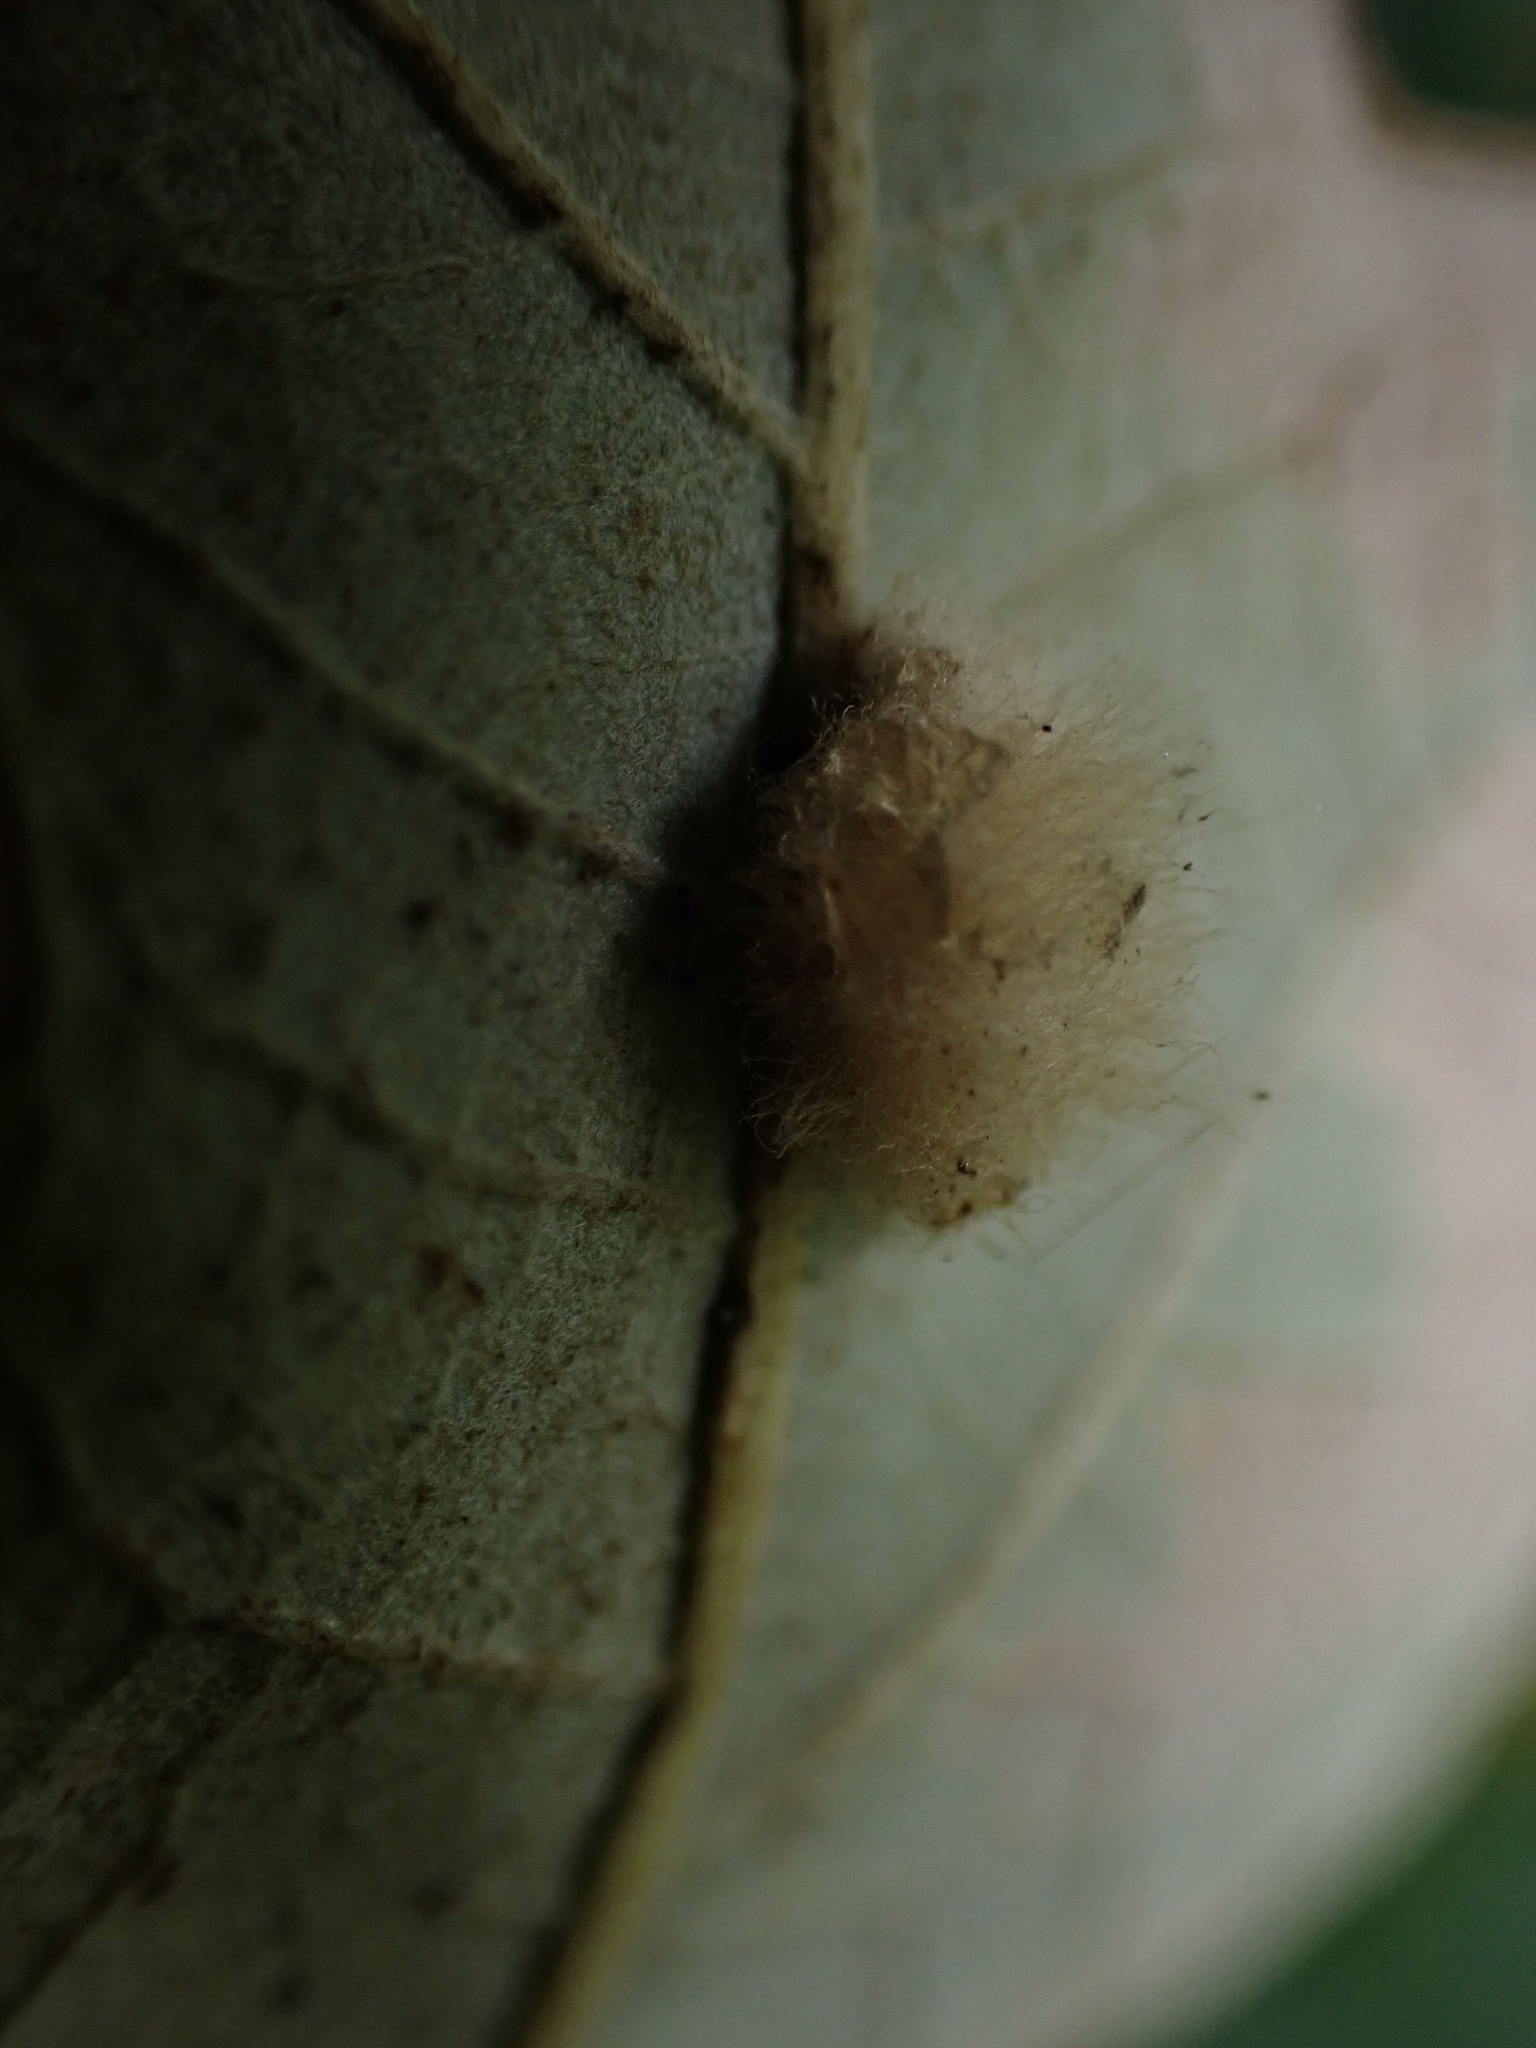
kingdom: Animalia
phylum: Arthropoda
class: Insecta
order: Hymenoptera
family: Cynipidae
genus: Andricus
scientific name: Andricus Druon ignotum
